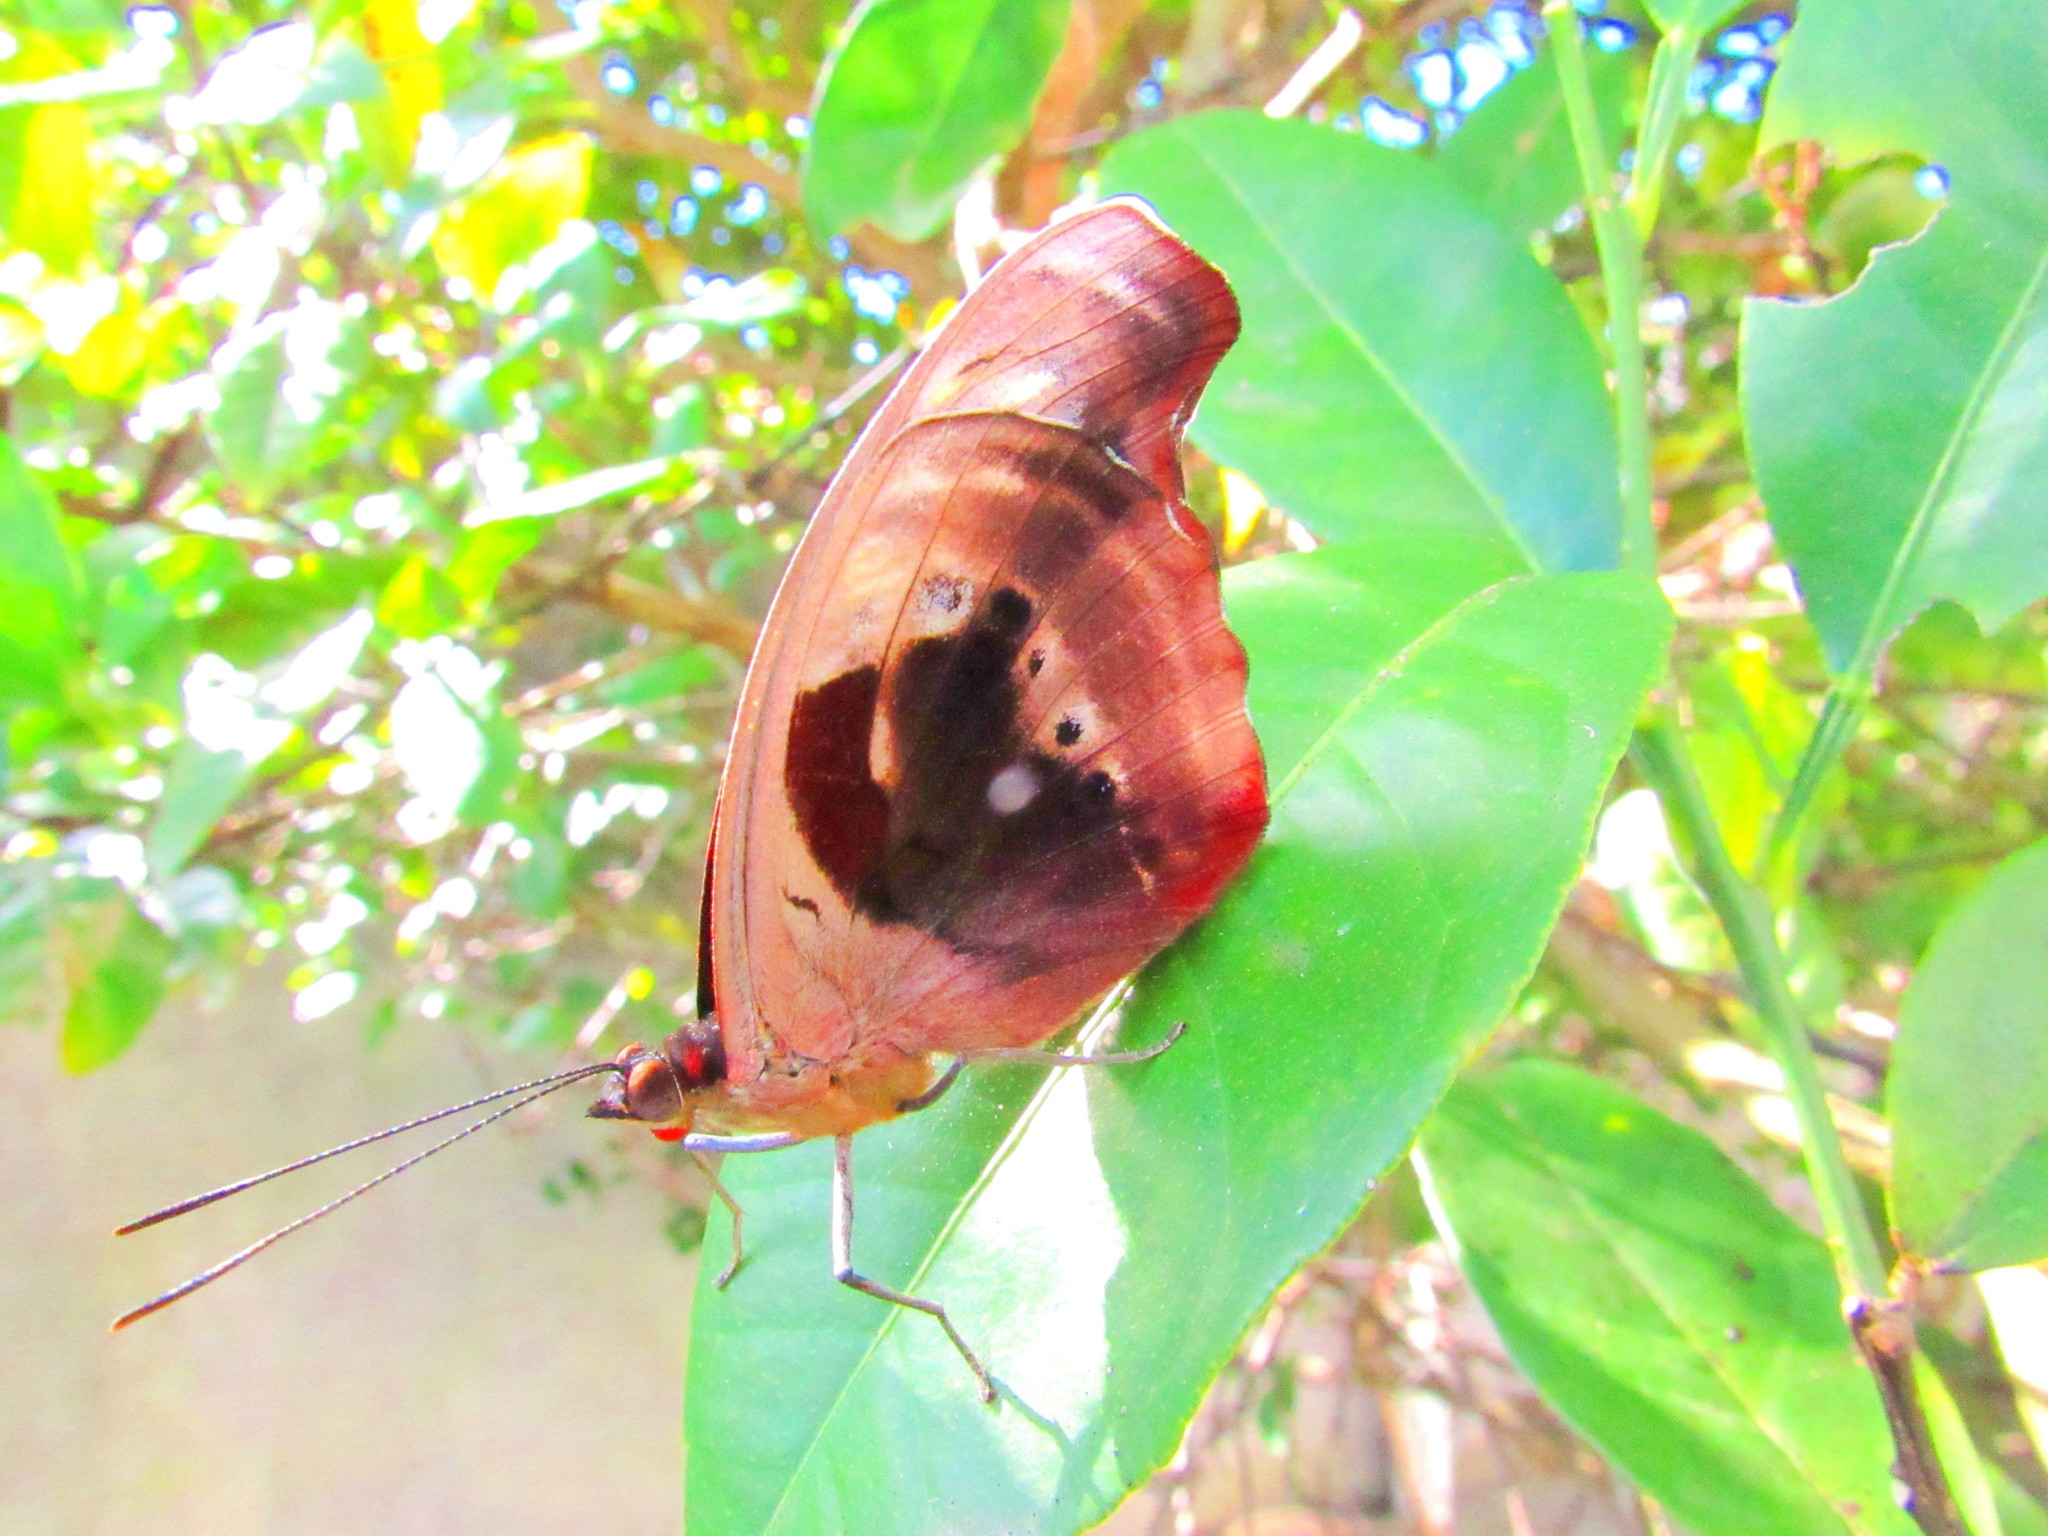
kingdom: Animalia
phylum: Arthropoda
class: Insecta
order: Lepidoptera
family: Nymphalidae
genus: Catonephele
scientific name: Catonephele numilia
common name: Blue-frosted banner
